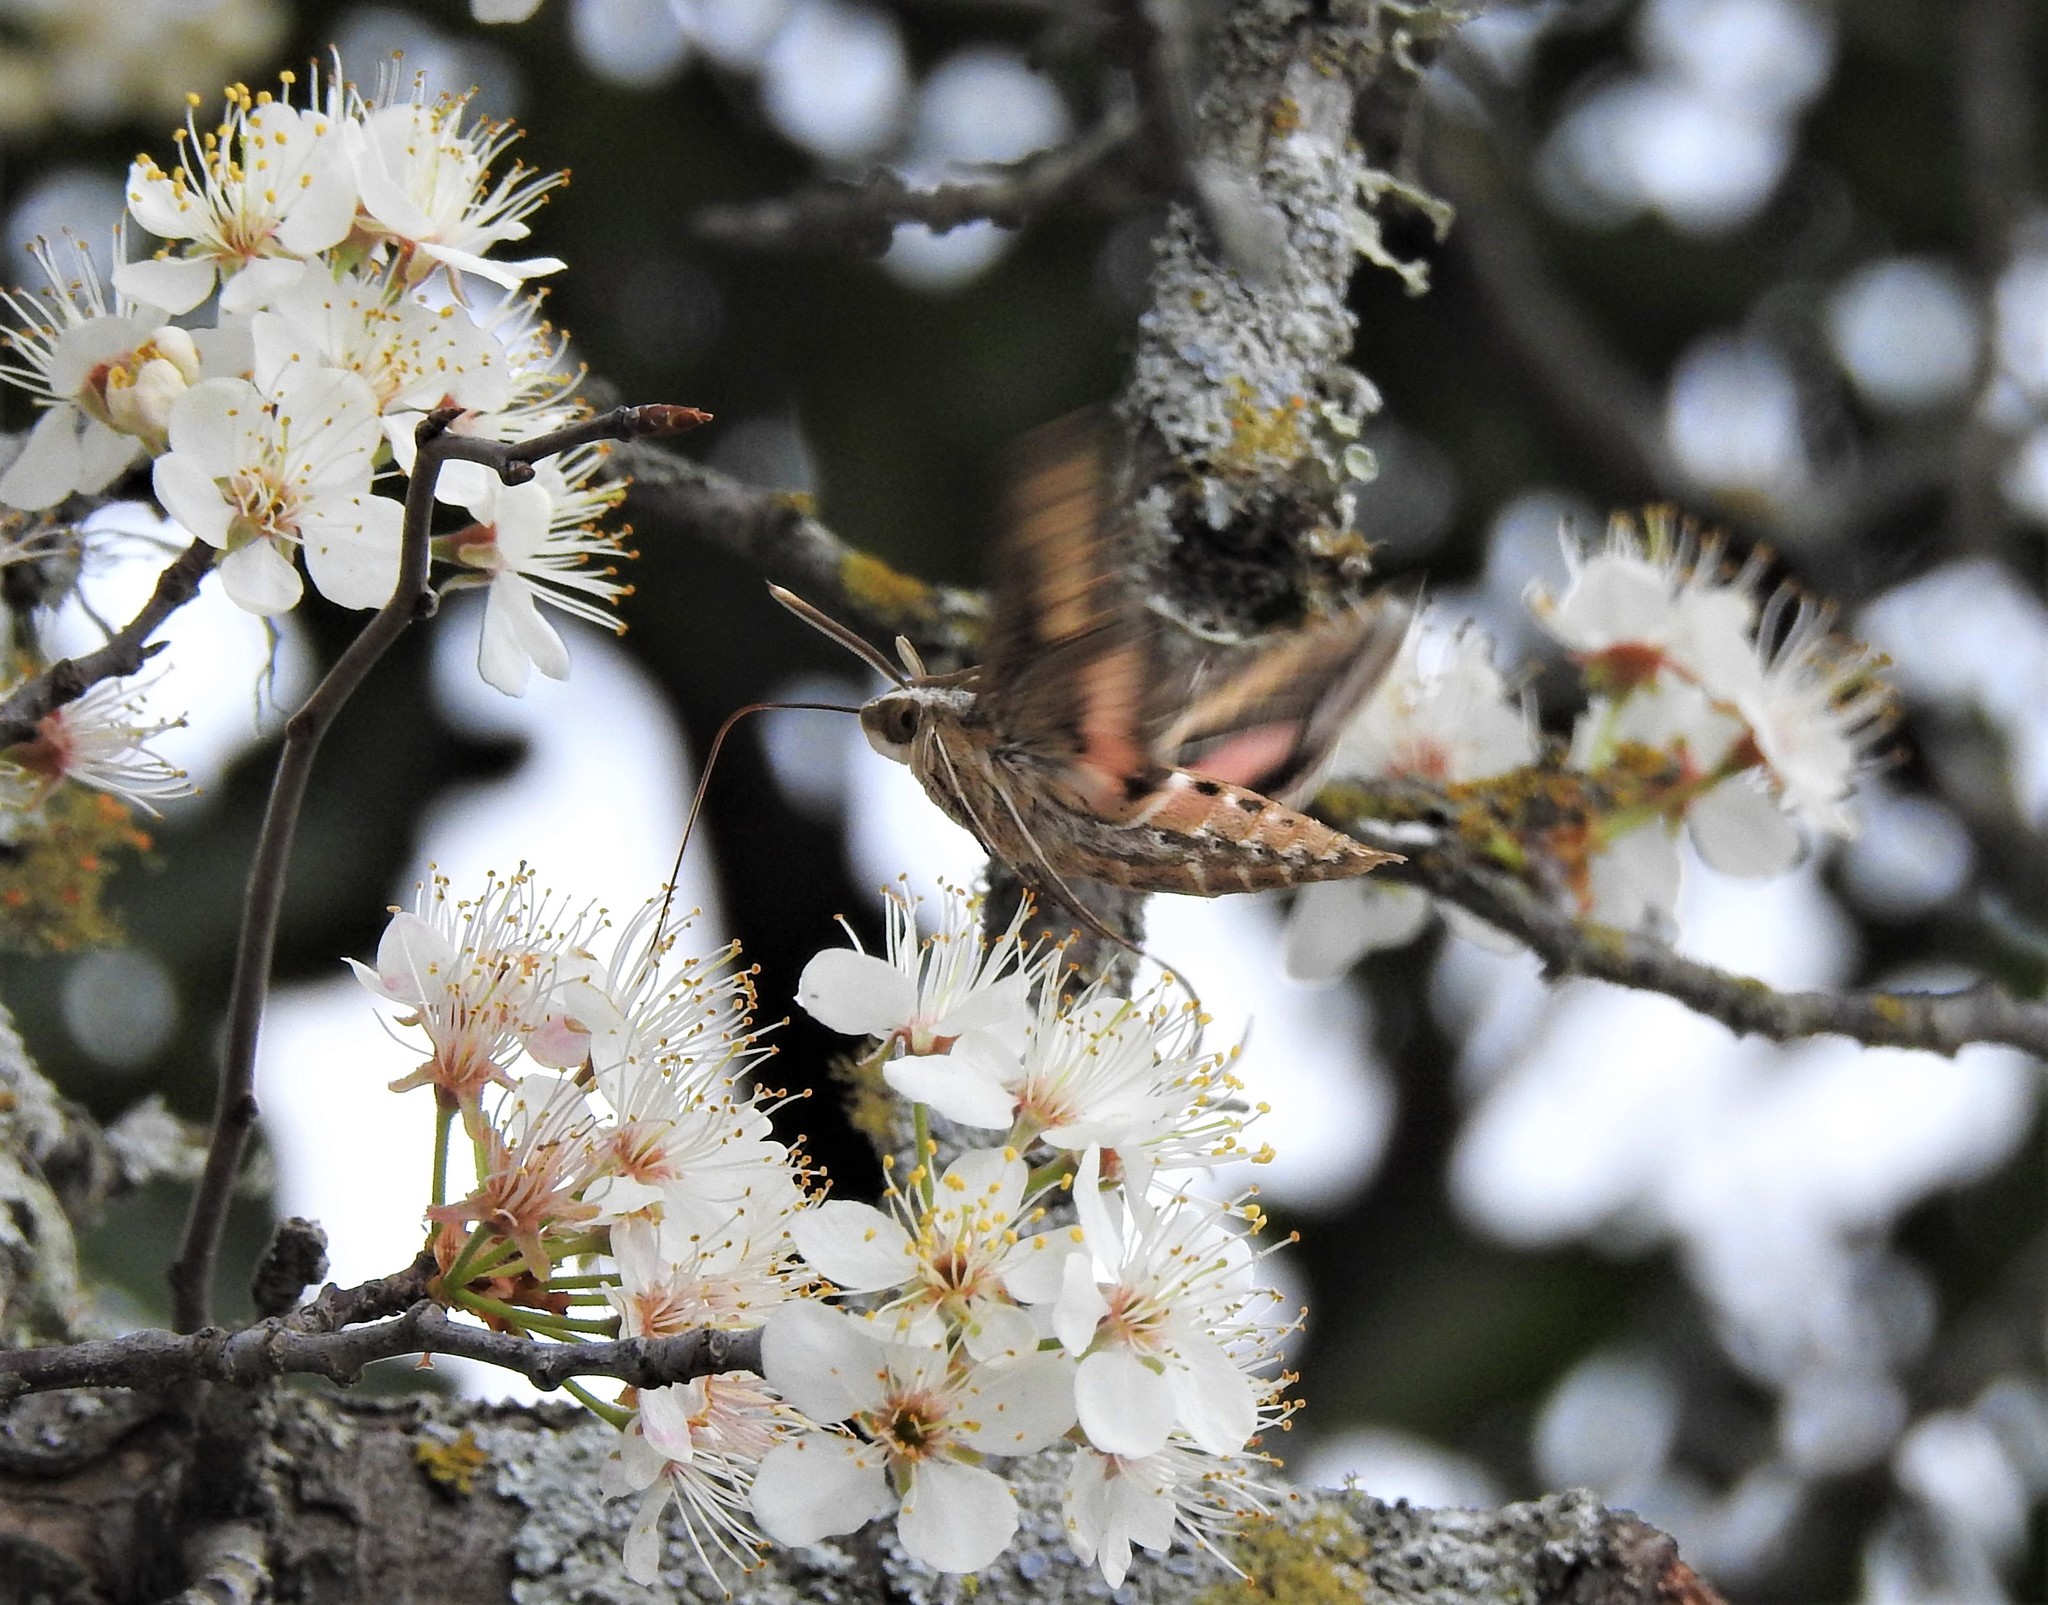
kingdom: Animalia
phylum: Arthropoda
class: Insecta
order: Lepidoptera
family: Sphingidae
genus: Hyles
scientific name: Hyles lineata
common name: White-lined sphinx
